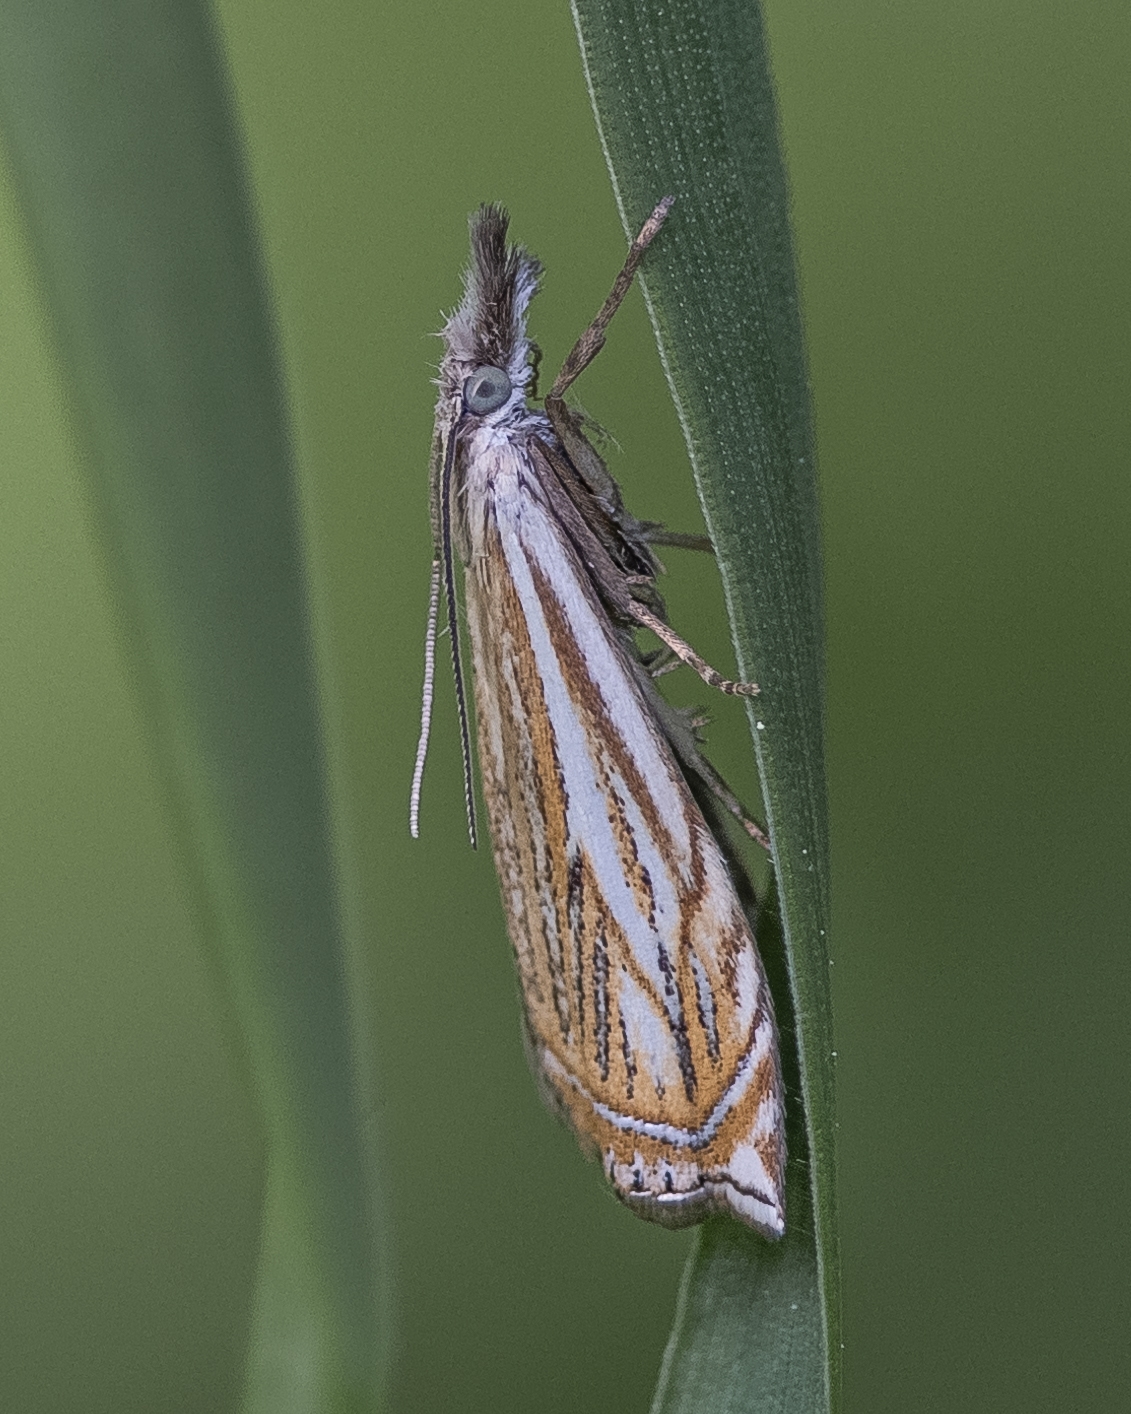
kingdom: Animalia
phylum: Arthropoda
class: Insecta
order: Lepidoptera
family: Crambidae
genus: Crambus
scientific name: Crambus nemorella
